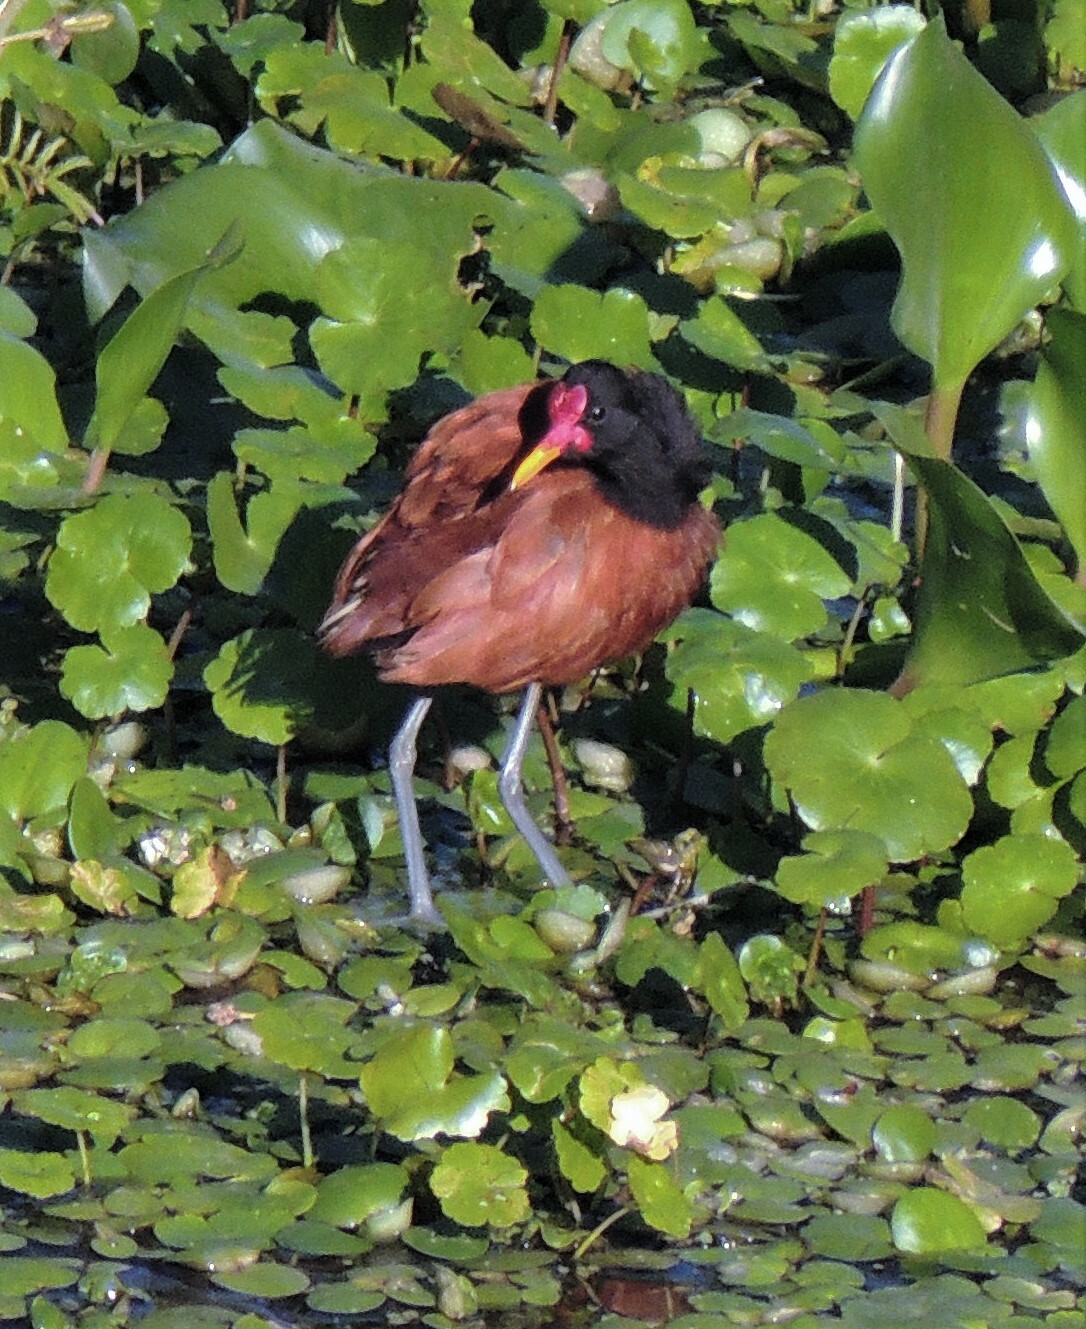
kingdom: Animalia
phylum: Chordata
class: Aves
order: Charadriiformes
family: Jacanidae
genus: Jacana
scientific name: Jacana jacana
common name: Wattled jacana
